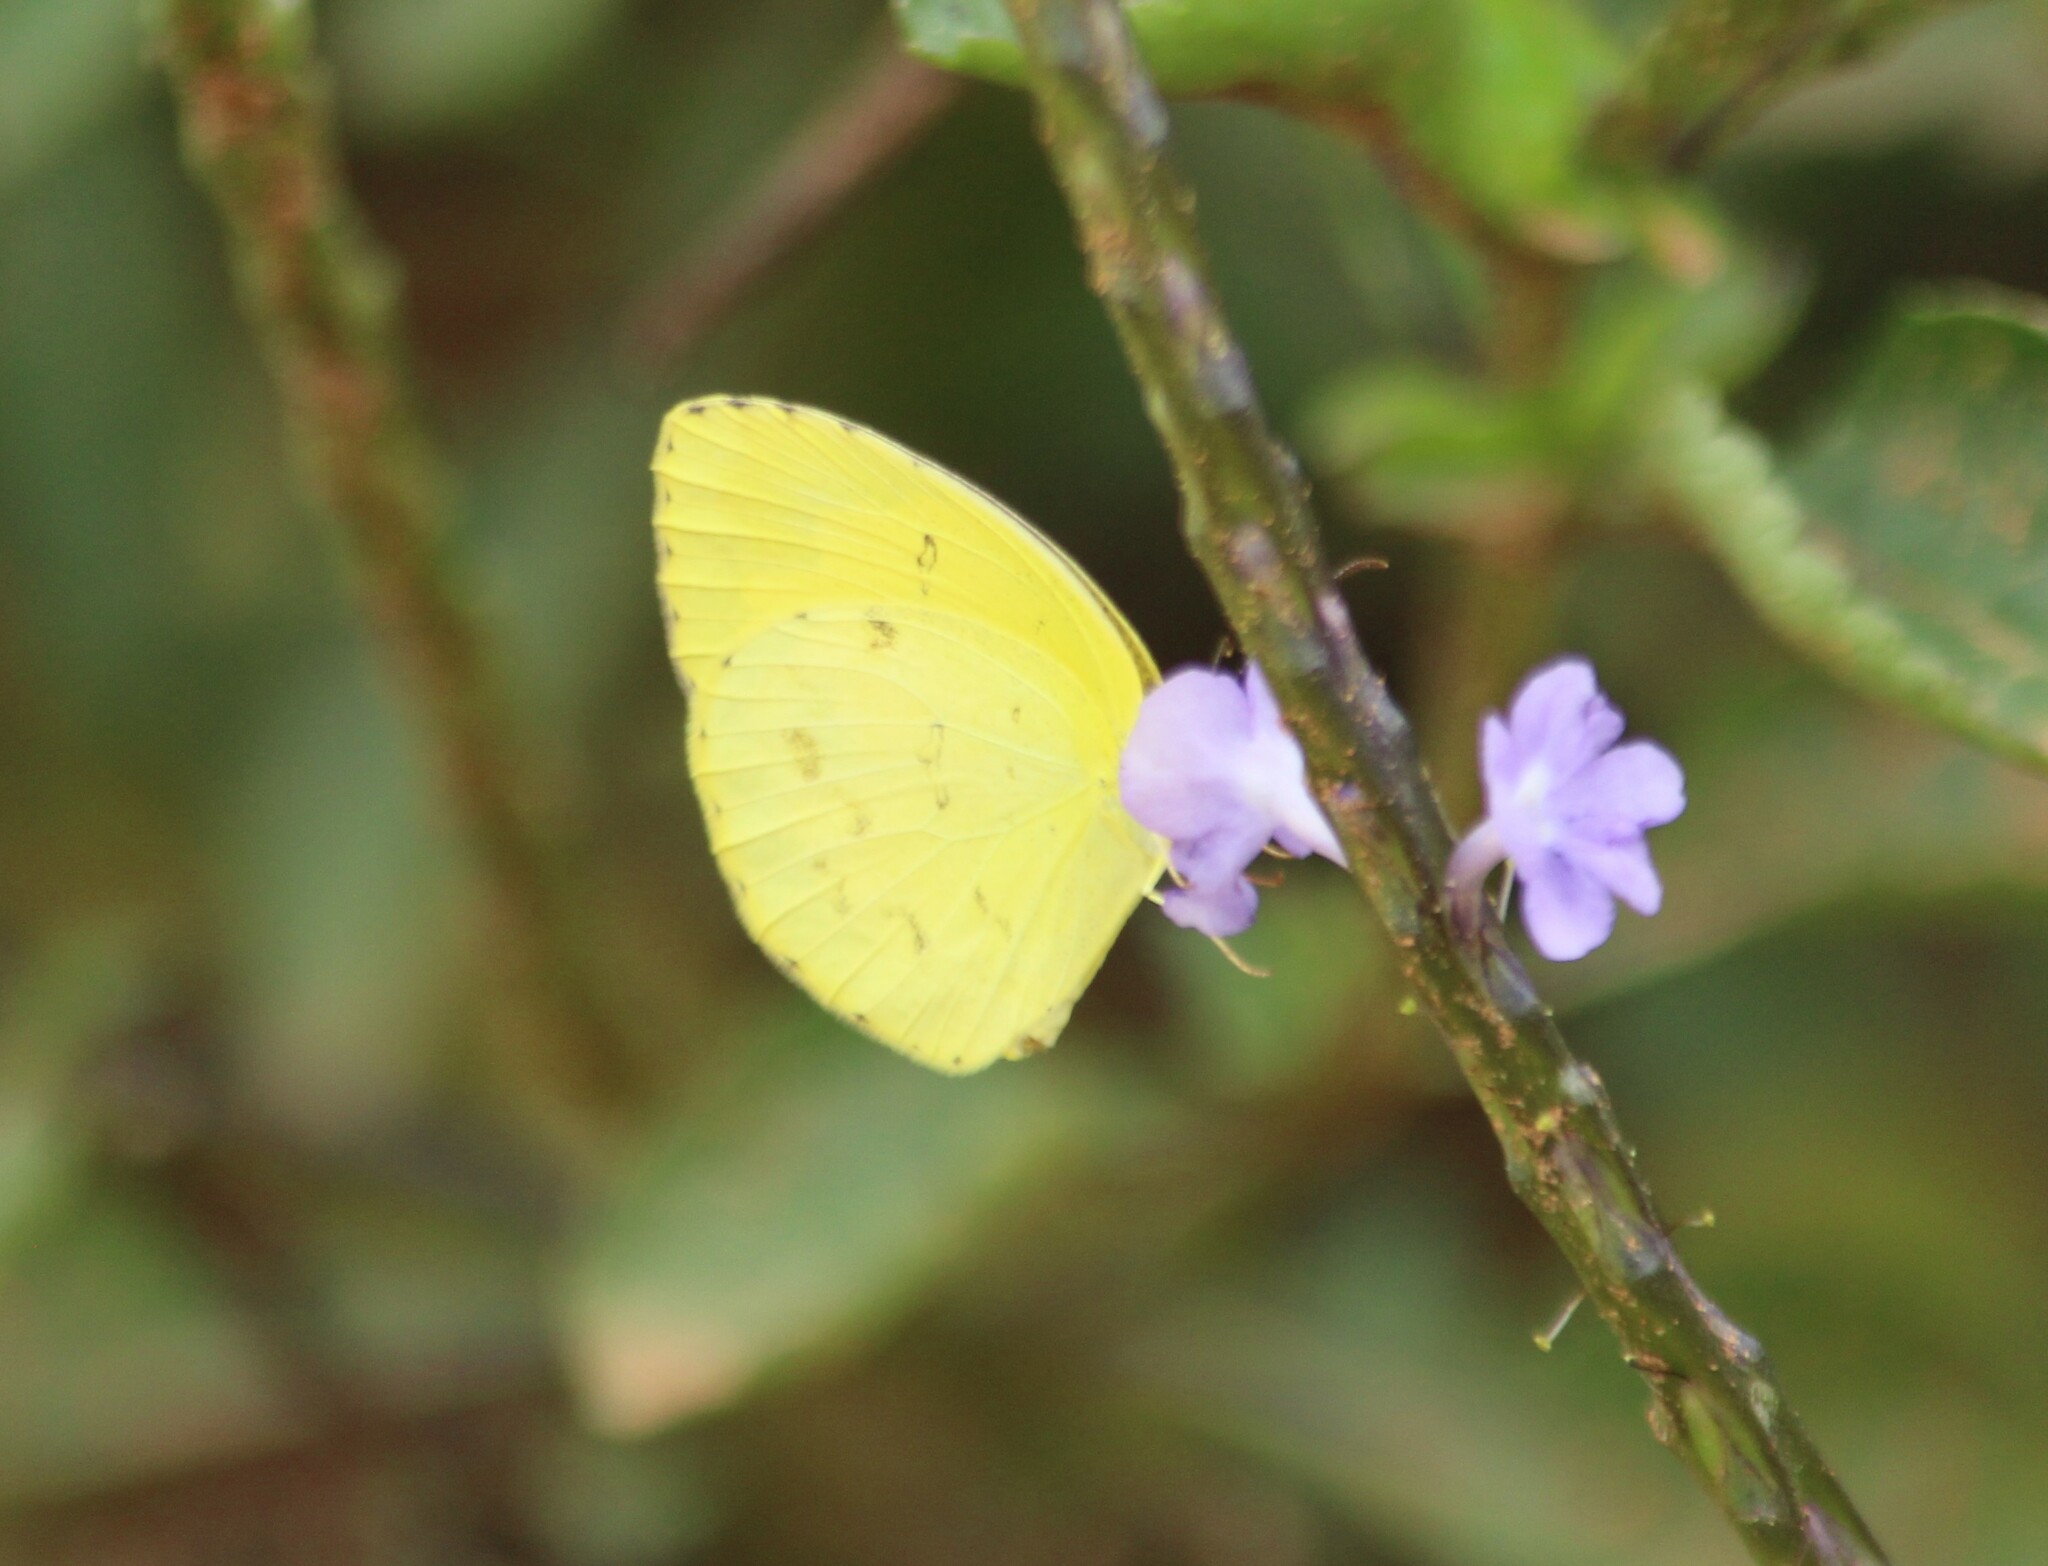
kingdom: Animalia
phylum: Arthropoda
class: Insecta
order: Lepidoptera
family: Pieridae
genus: Eurema
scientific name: Eurema hecabe
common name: Pale grass yellow
